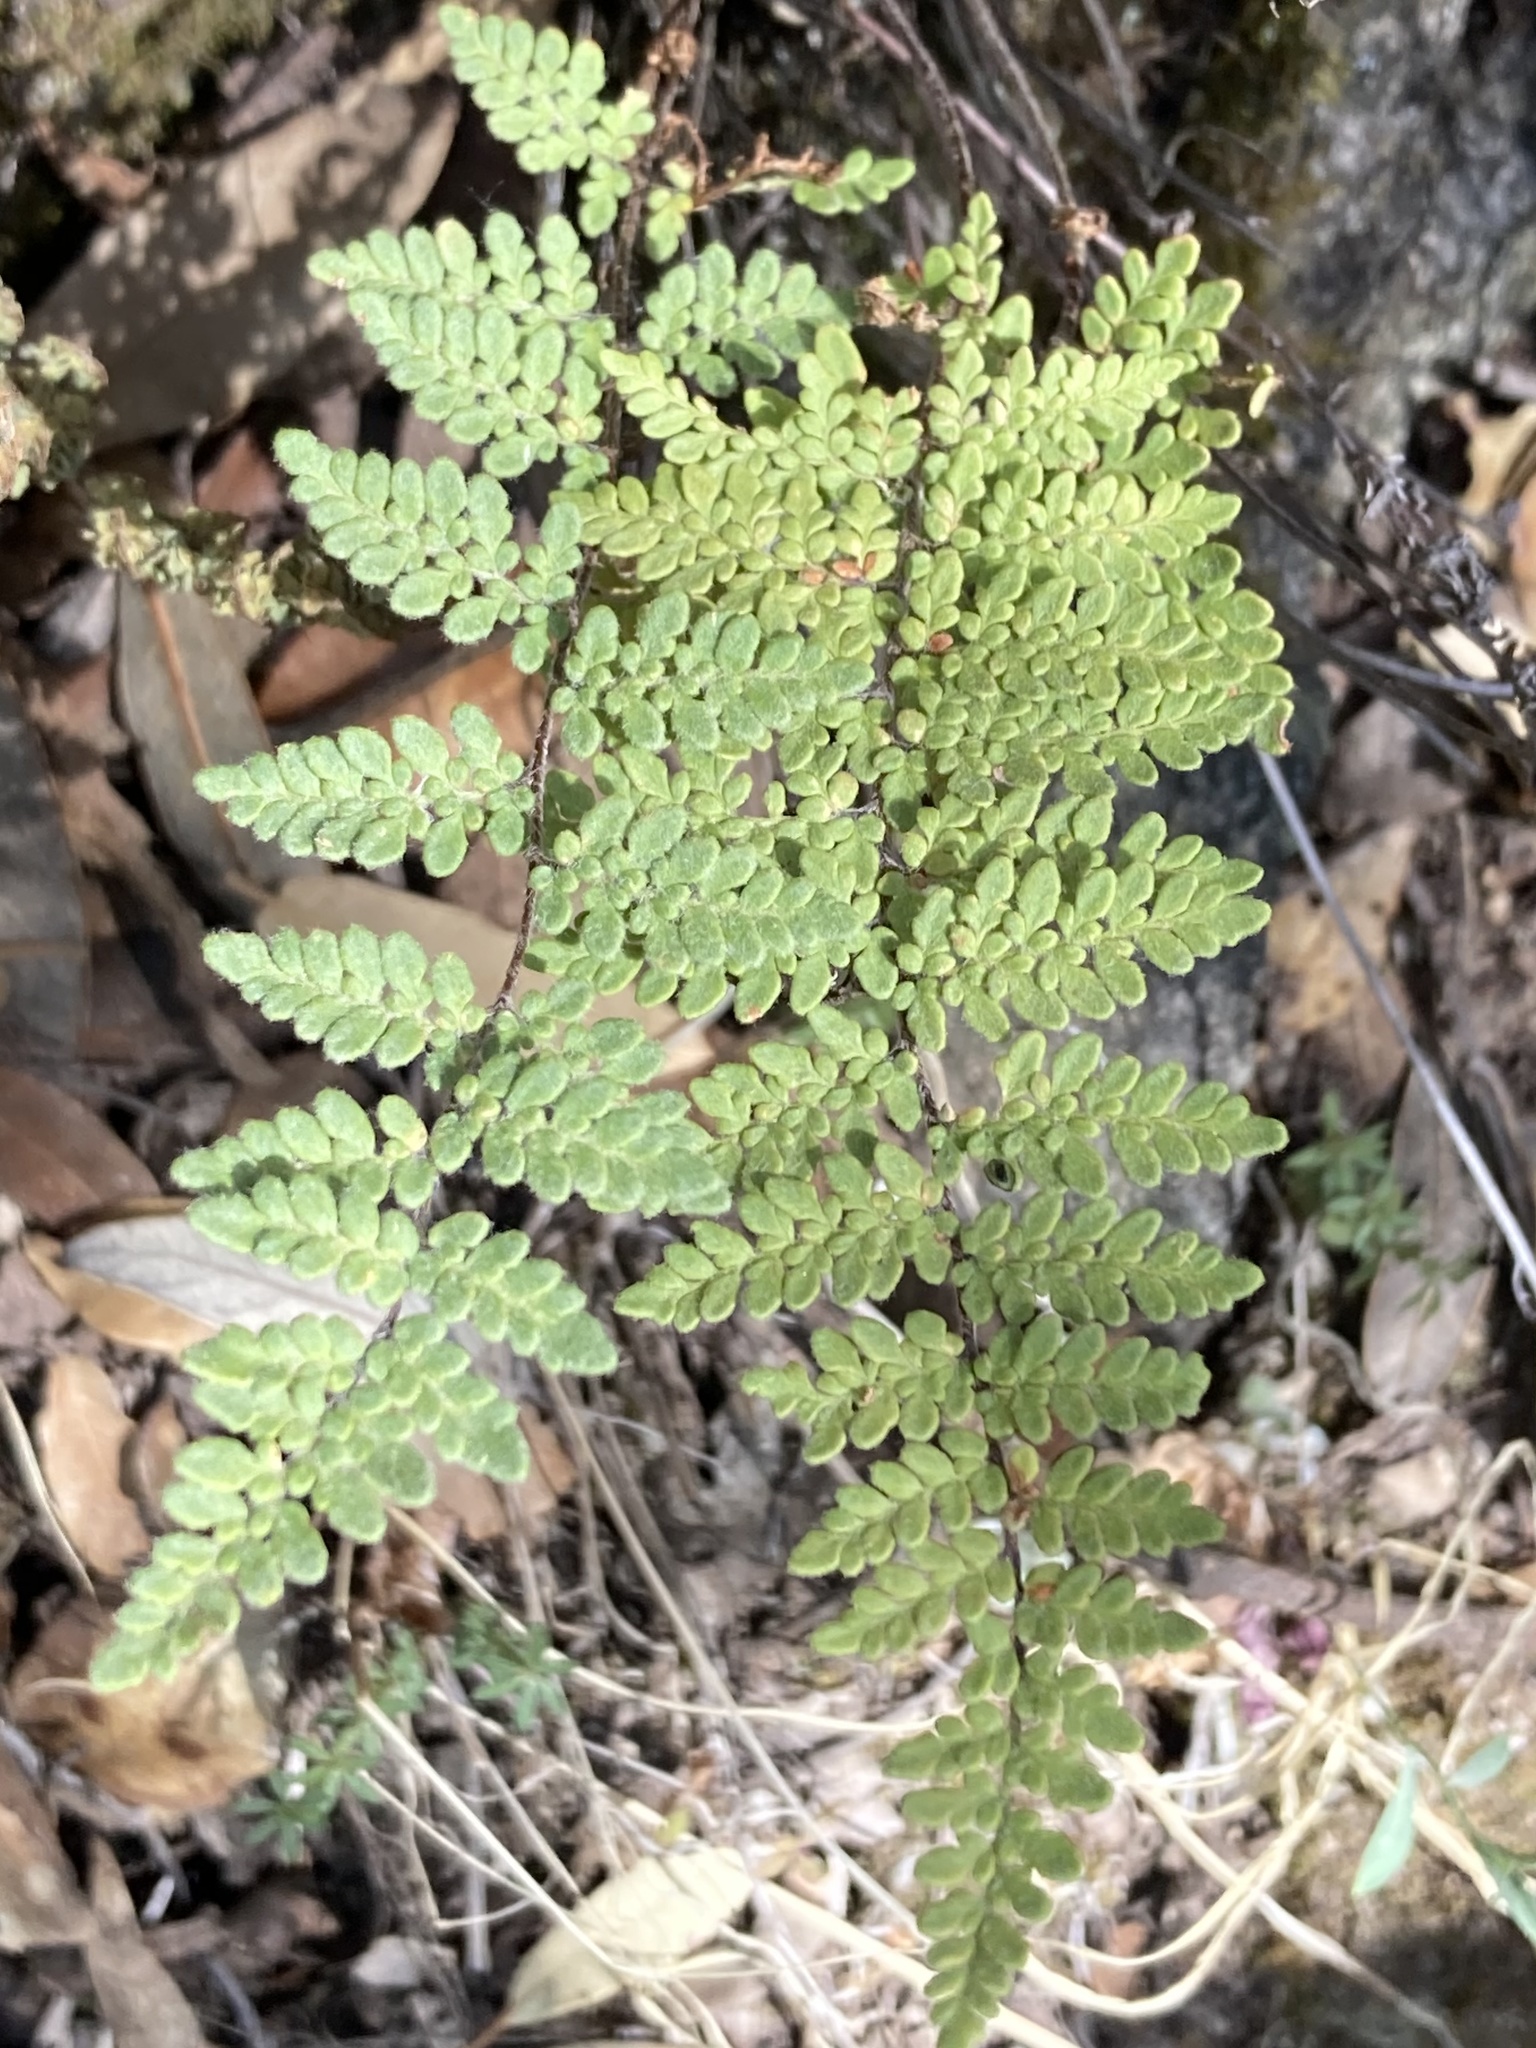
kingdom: Plantae
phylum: Tracheophyta
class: Polypodiopsida
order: Polypodiales
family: Pteridaceae
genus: Myriopteris
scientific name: Myriopteris tomentosa
